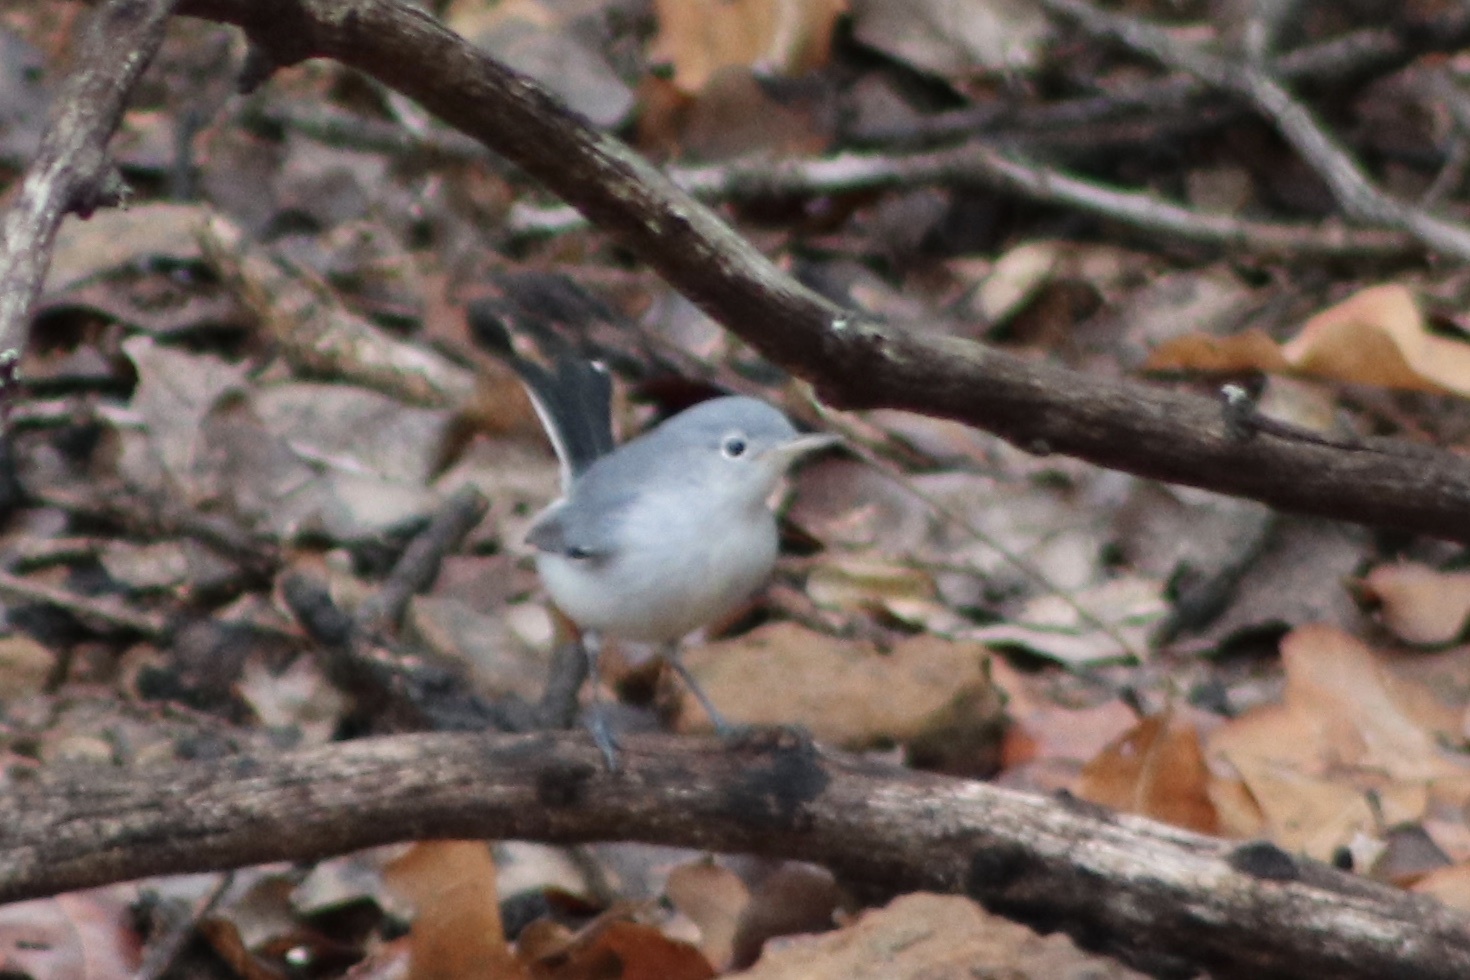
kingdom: Animalia
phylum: Chordata
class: Aves
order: Passeriformes
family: Polioptilidae
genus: Polioptila
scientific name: Polioptila caerulea
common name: Blue-gray gnatcatcher
